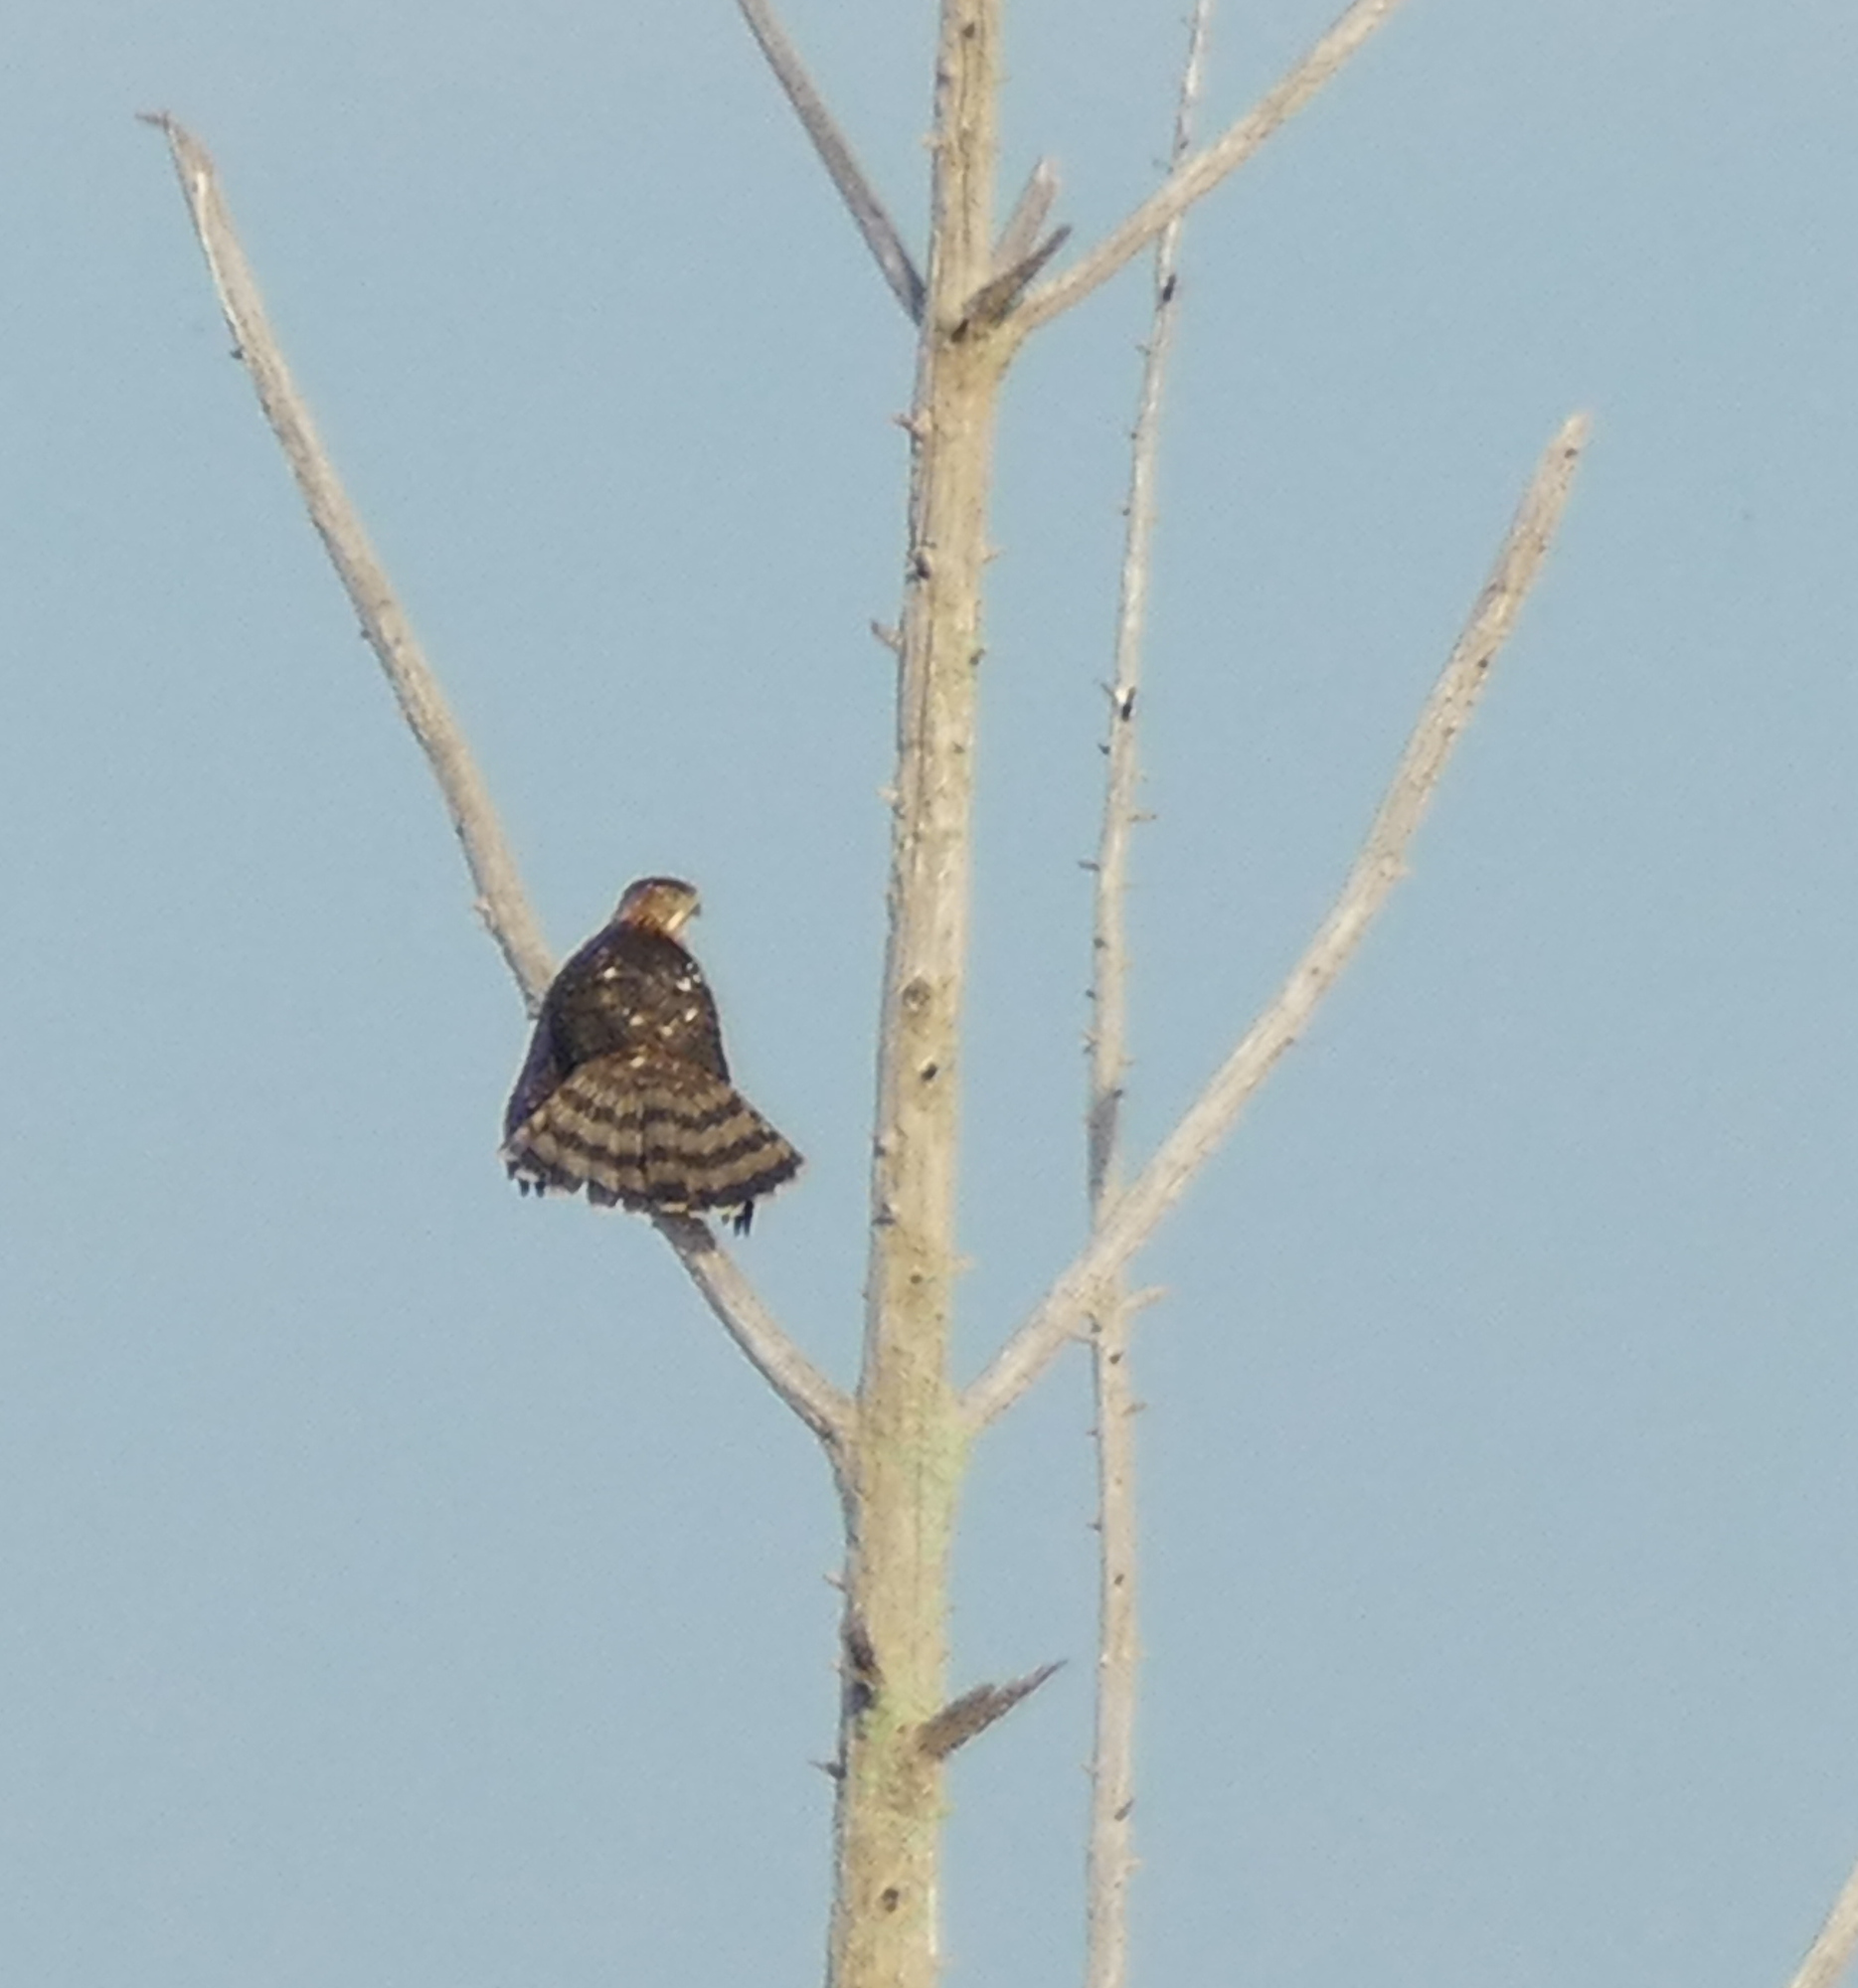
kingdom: Animalia
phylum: Chordata
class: Aves
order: Accipitriformes
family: Accipitridae
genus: Accipiter
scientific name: Accipiter cooperii
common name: Cooper's hawk
